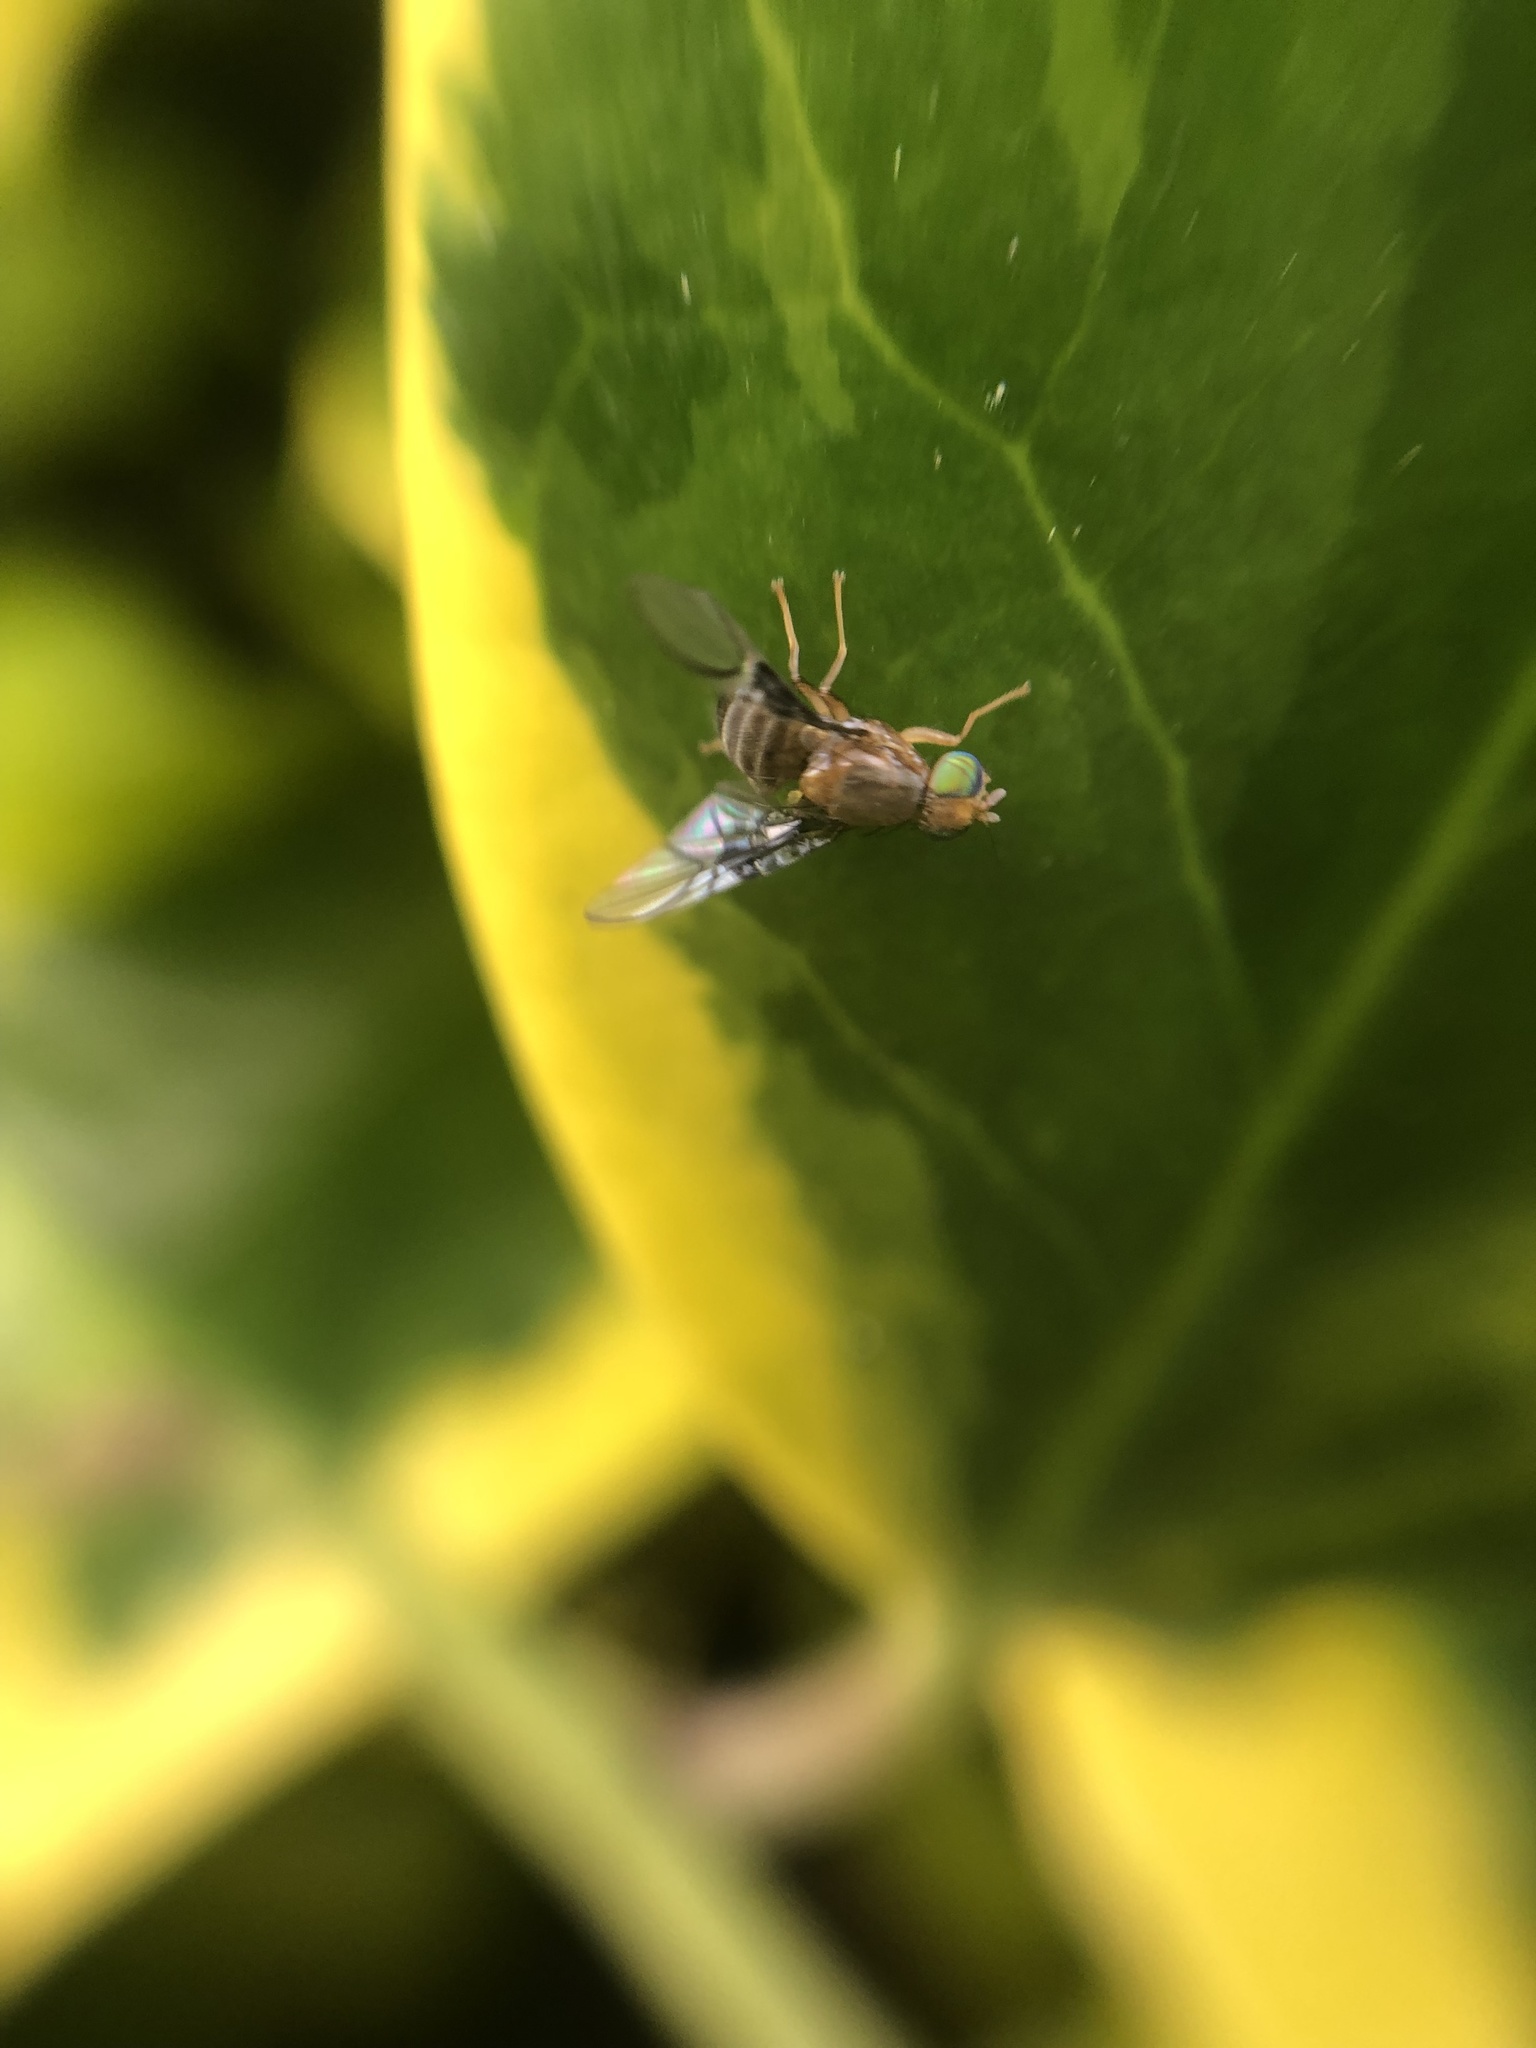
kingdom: Animalia
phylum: Arthropoda
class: Insecta
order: Diptera
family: Tephritidae
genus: Anomoia
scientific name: Anomoia purmunda
